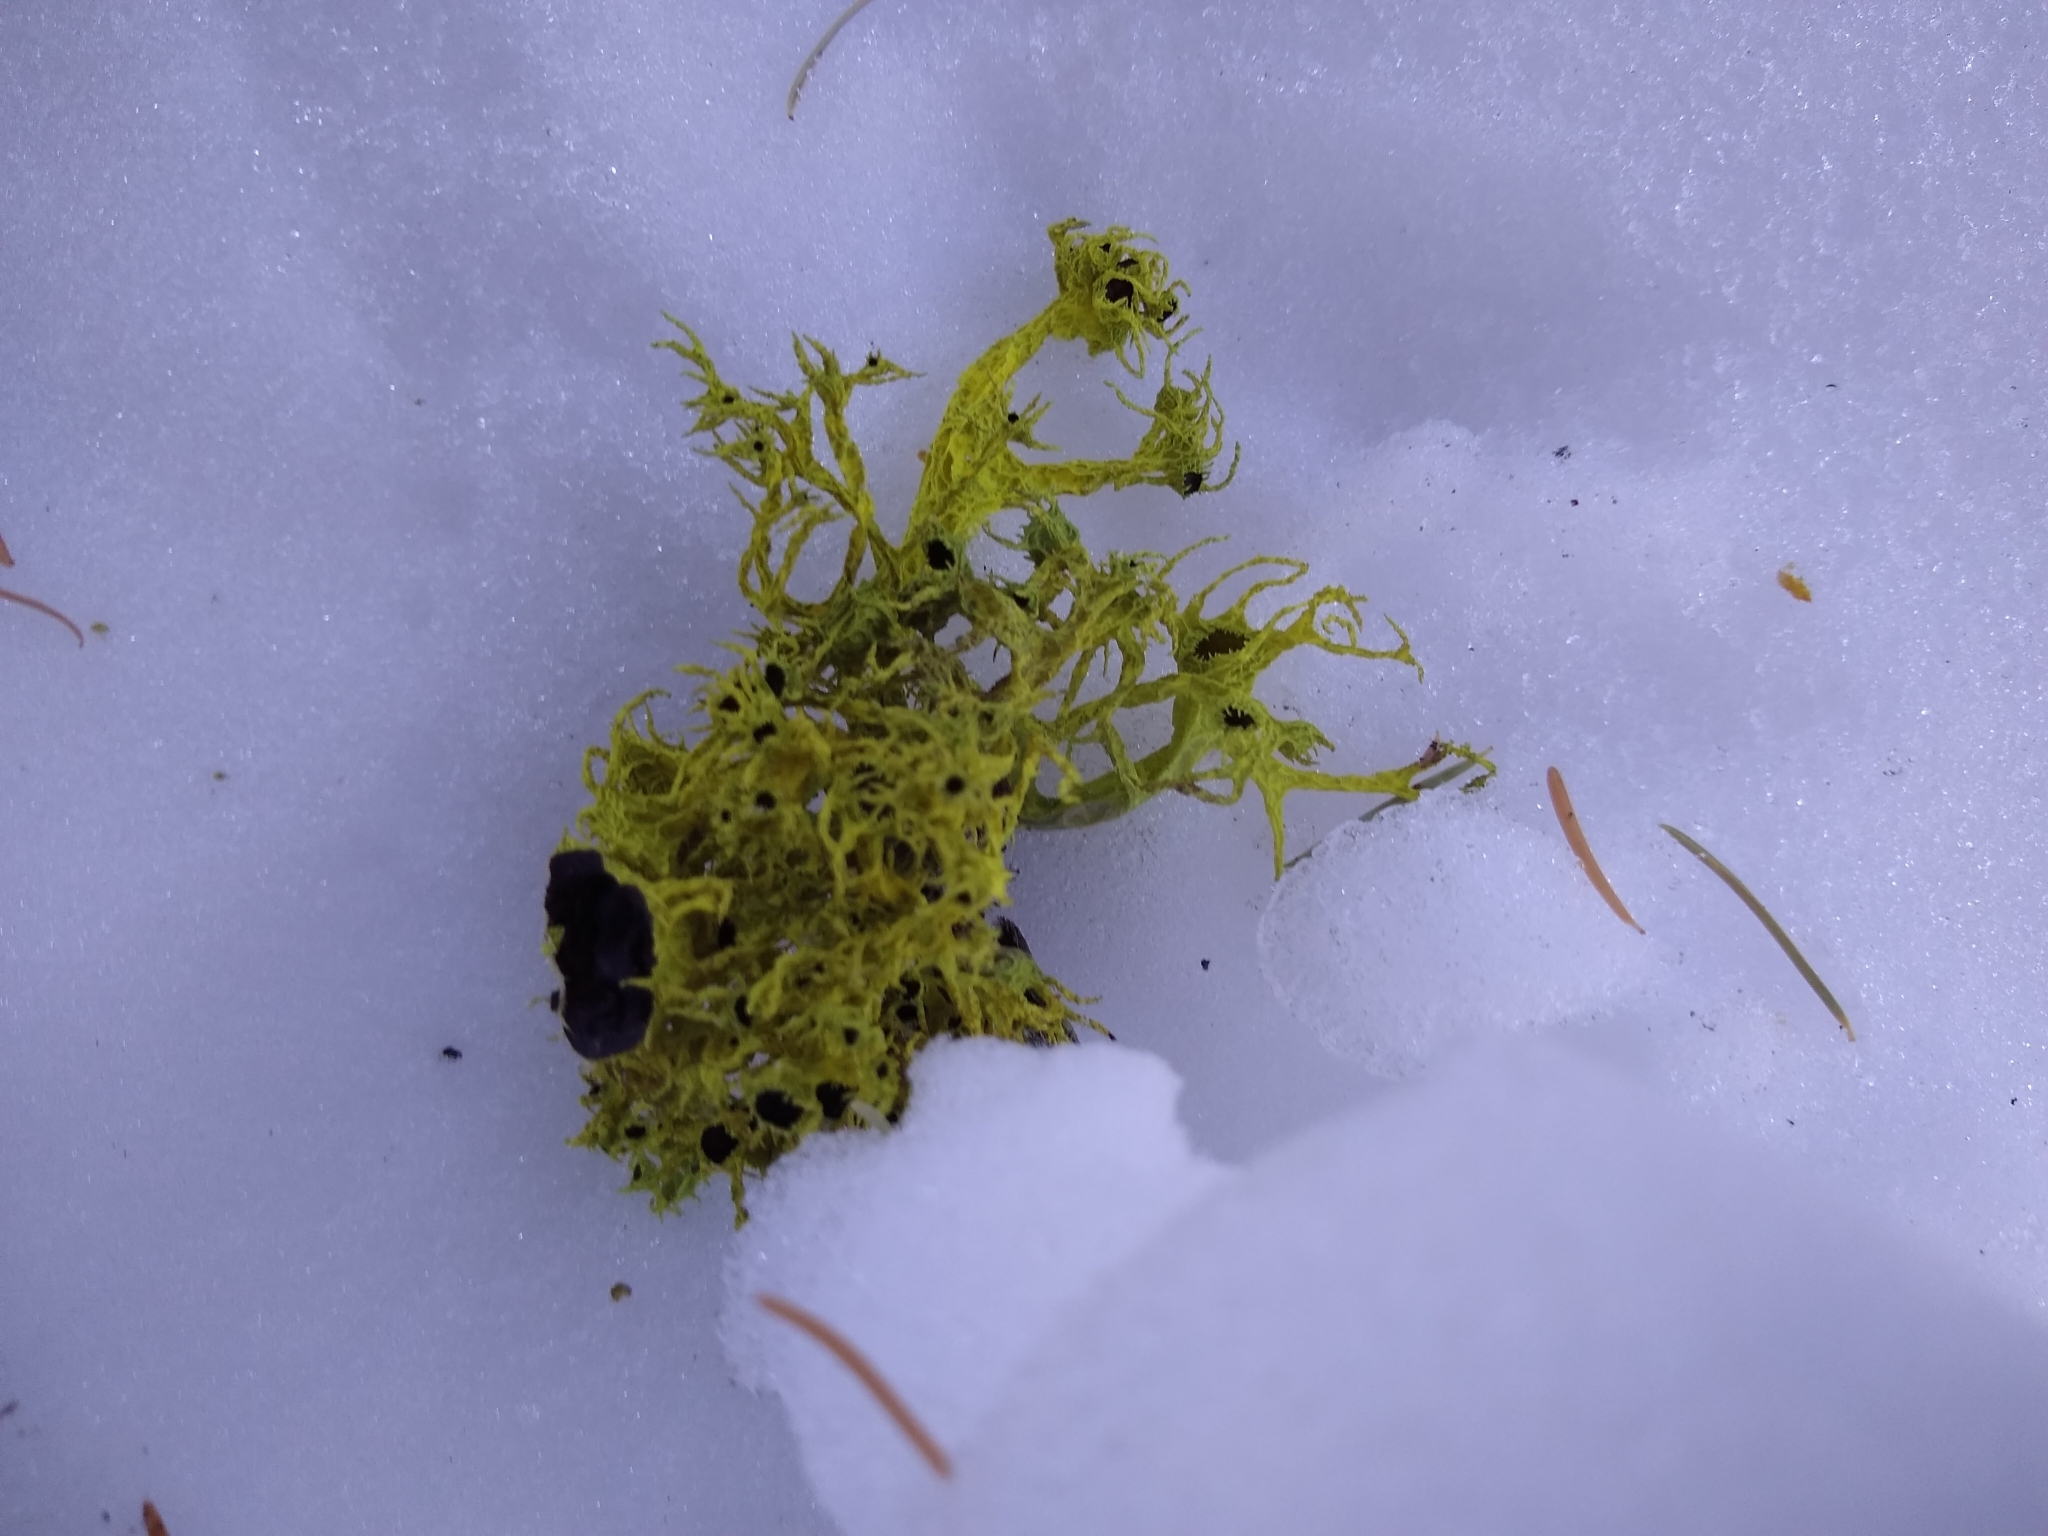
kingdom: Fungi
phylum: Ascomycota
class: Lecanoromycetes
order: Lecanorales
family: Parmeliaceae
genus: Letharia
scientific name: Letharia columbiana
